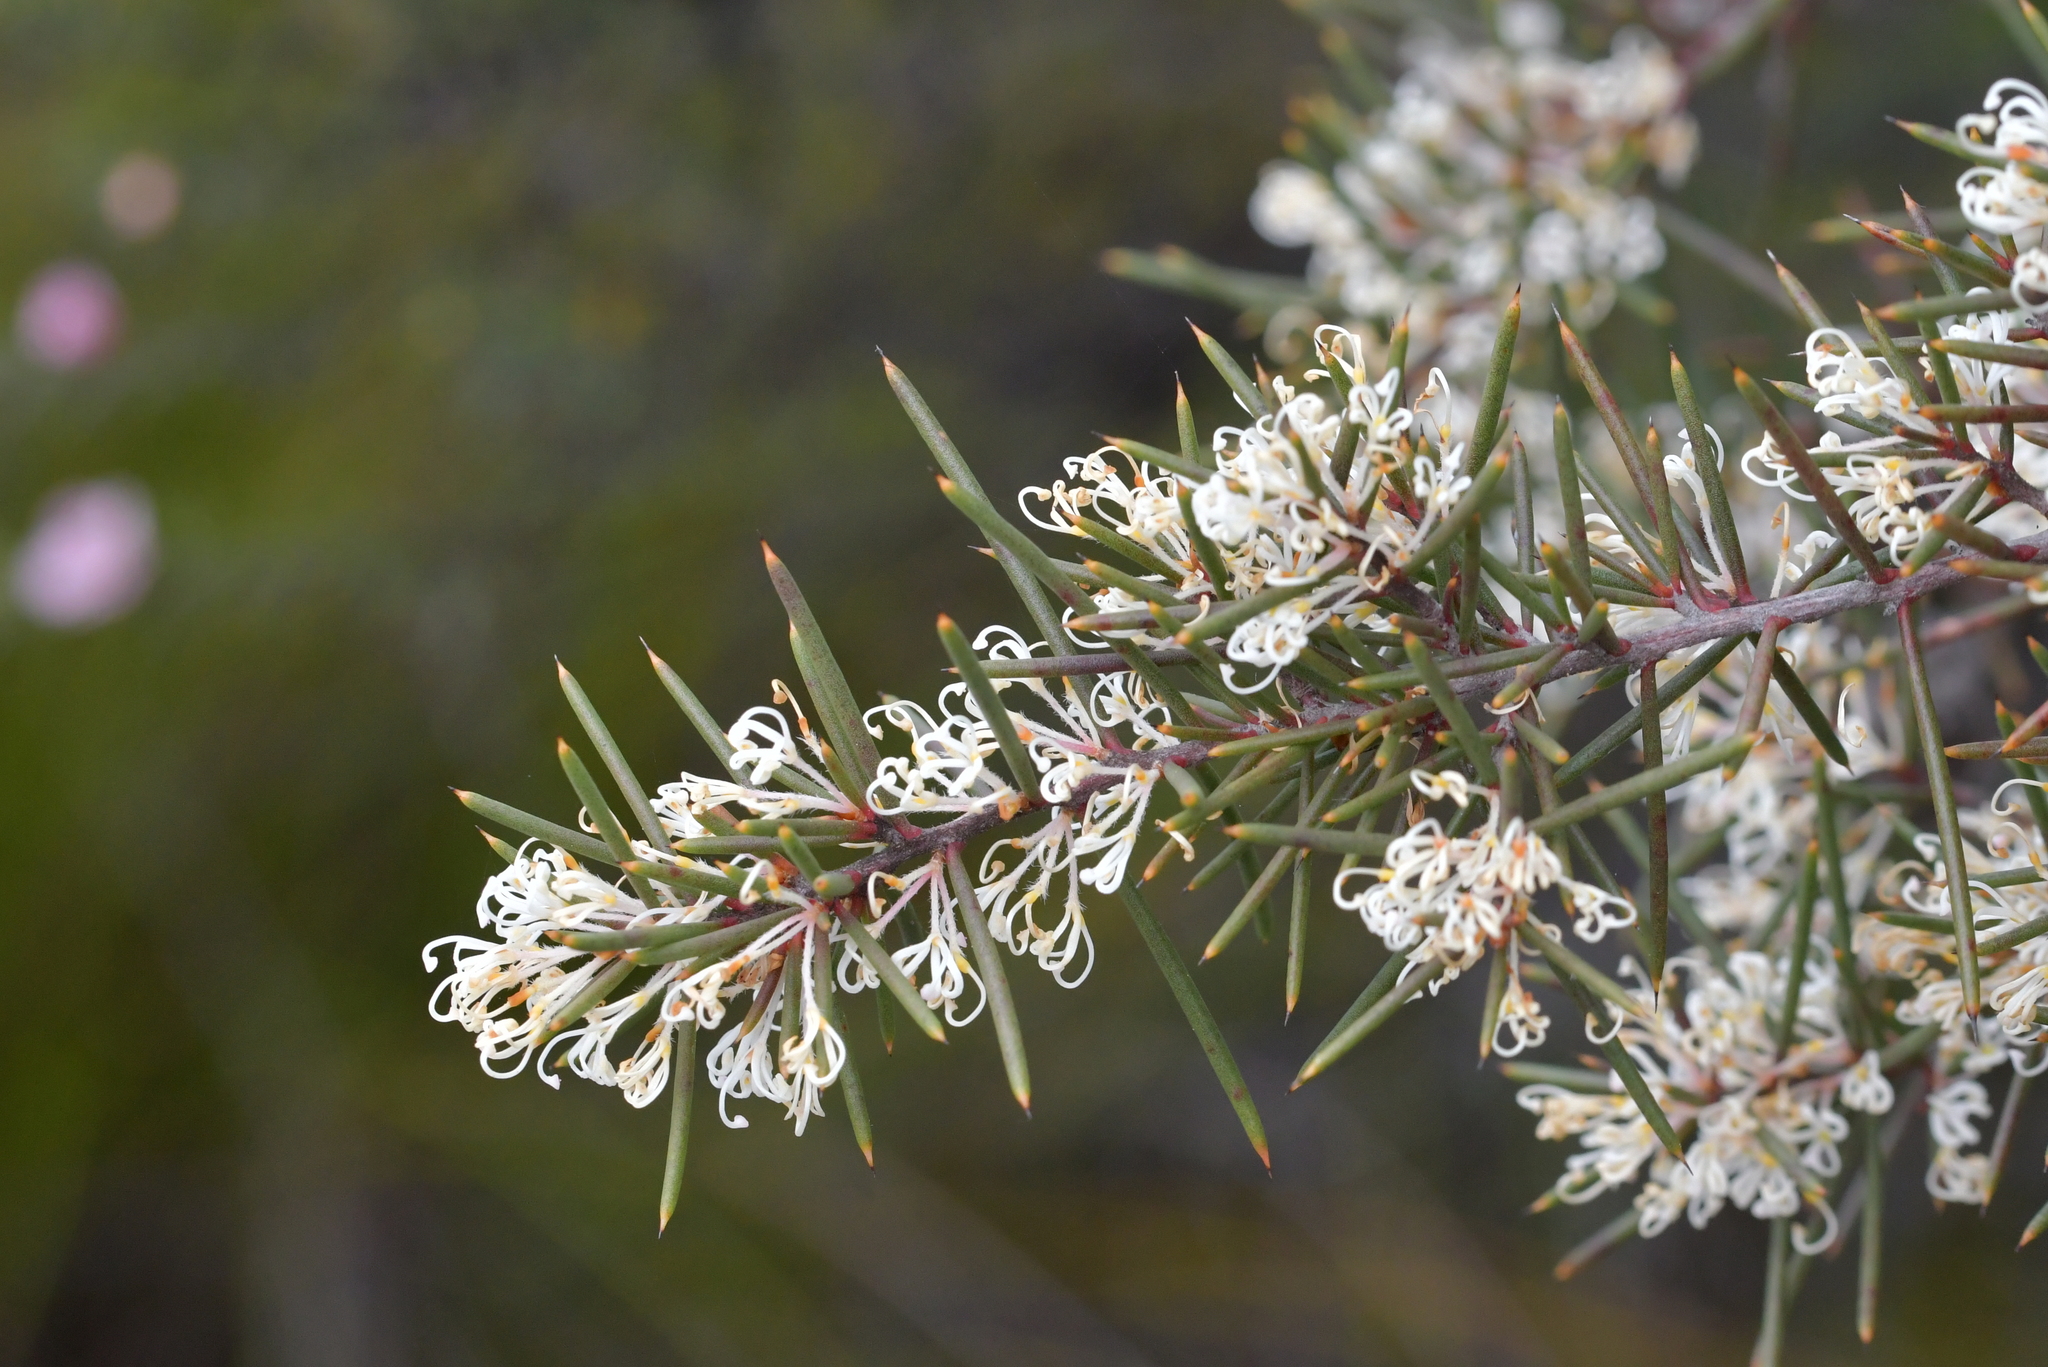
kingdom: Plantae
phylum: Tracheophyta
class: Magnoliopsida
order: Proteales
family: Proteaceae
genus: Hakea
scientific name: Hakea sericea
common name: Needle bush
